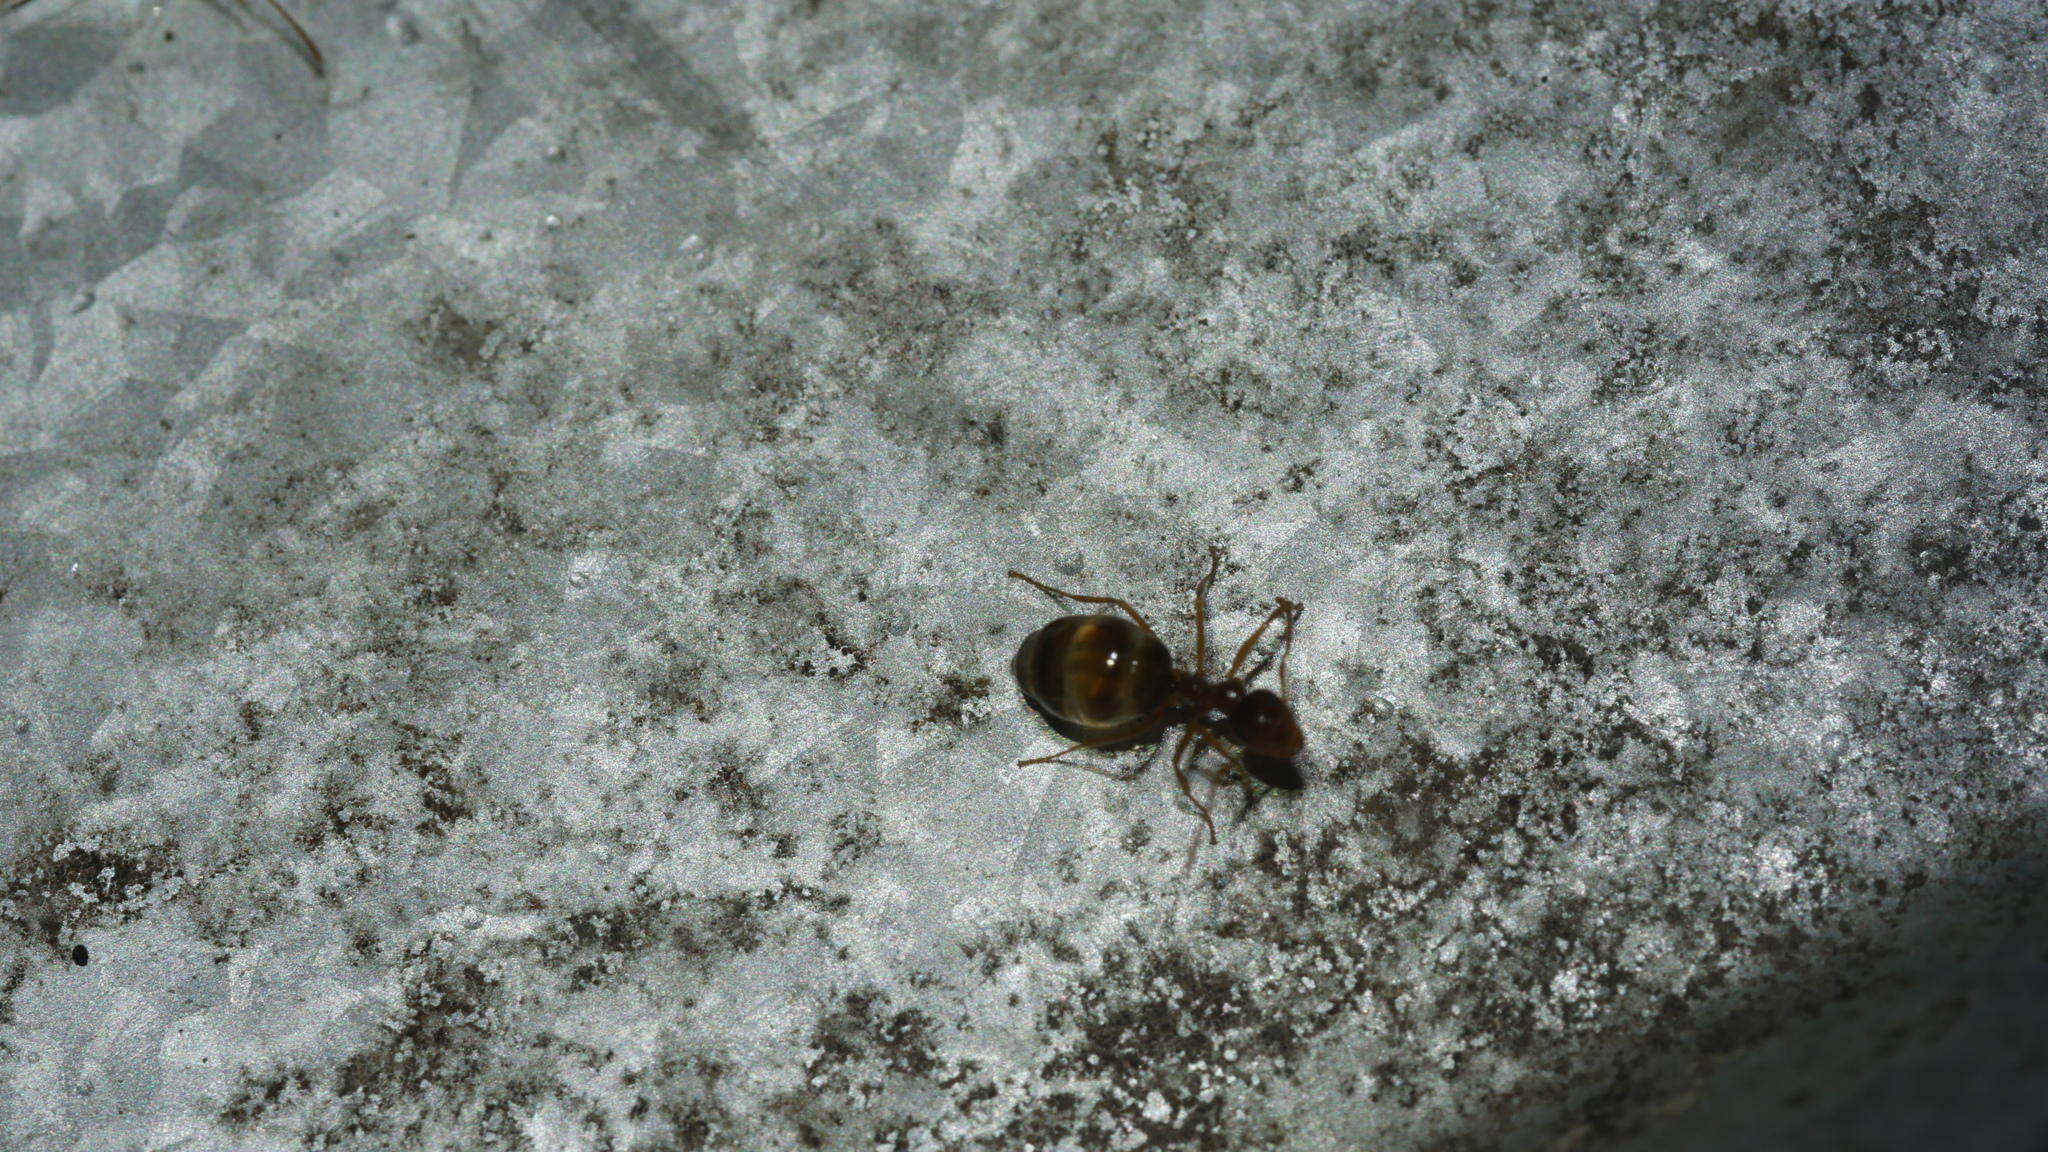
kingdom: Animalia
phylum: Arthropoda
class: Insecta
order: Hymenoptera
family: Formicidae
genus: Prenolepis
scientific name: Prenolepis imparis
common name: Small honey ant
